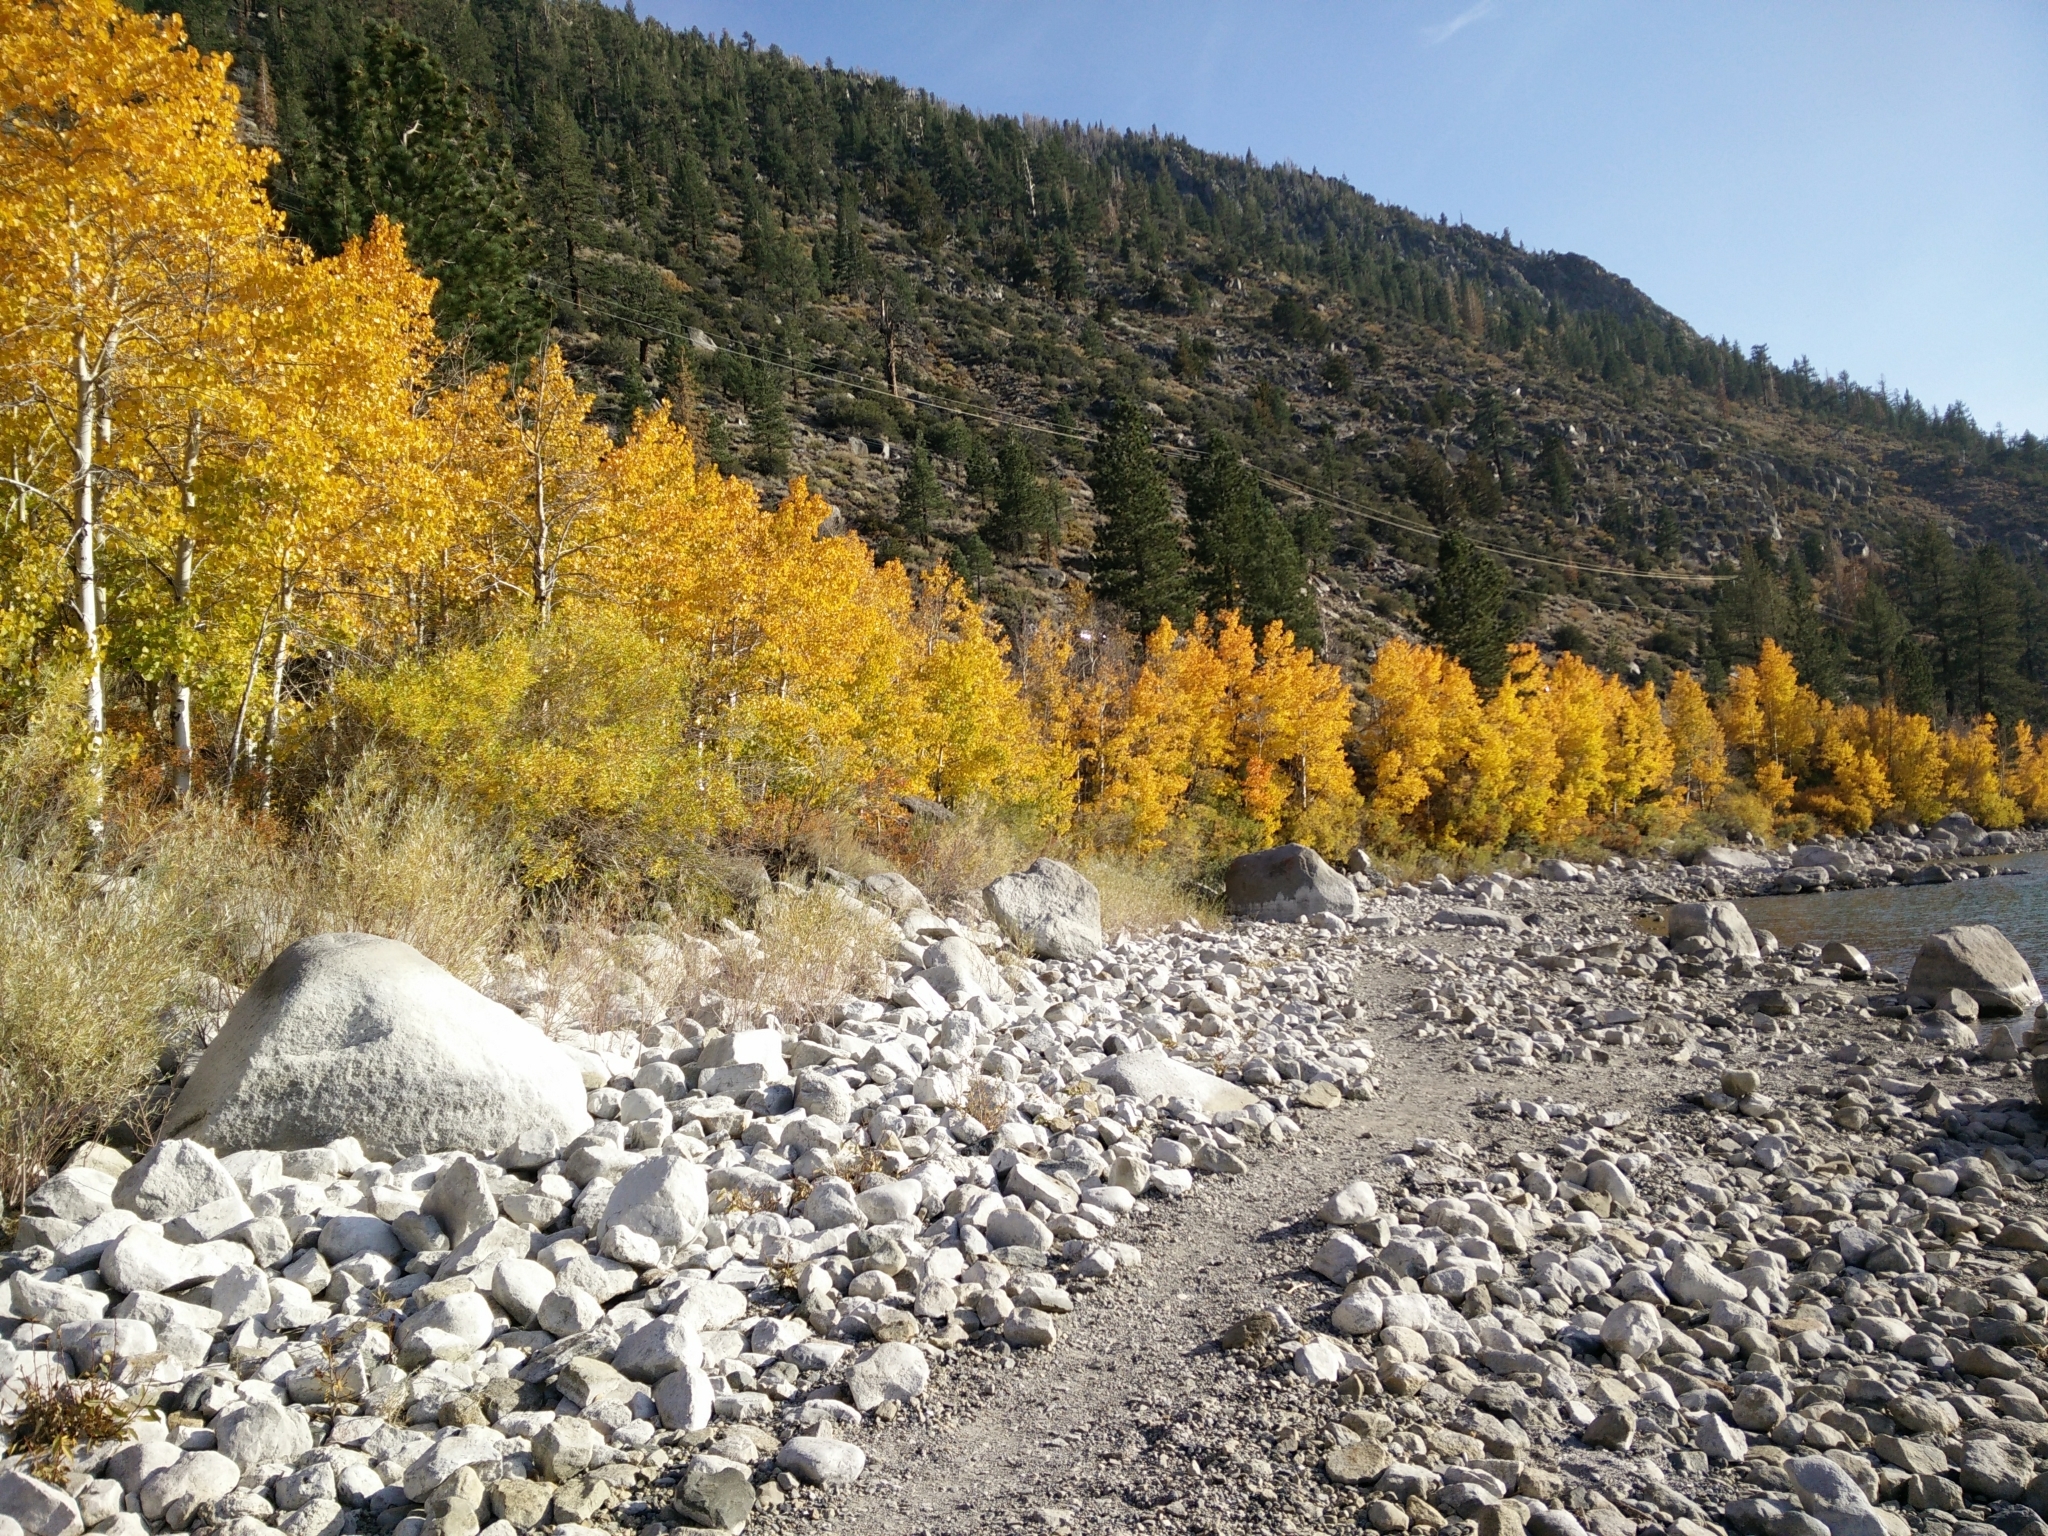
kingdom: Plantae
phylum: Tracheophyta
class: Magnoliopsida
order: Malpighiales
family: Salicaceae
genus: Populus
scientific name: Populus tremuloides
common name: Quaking aspen
